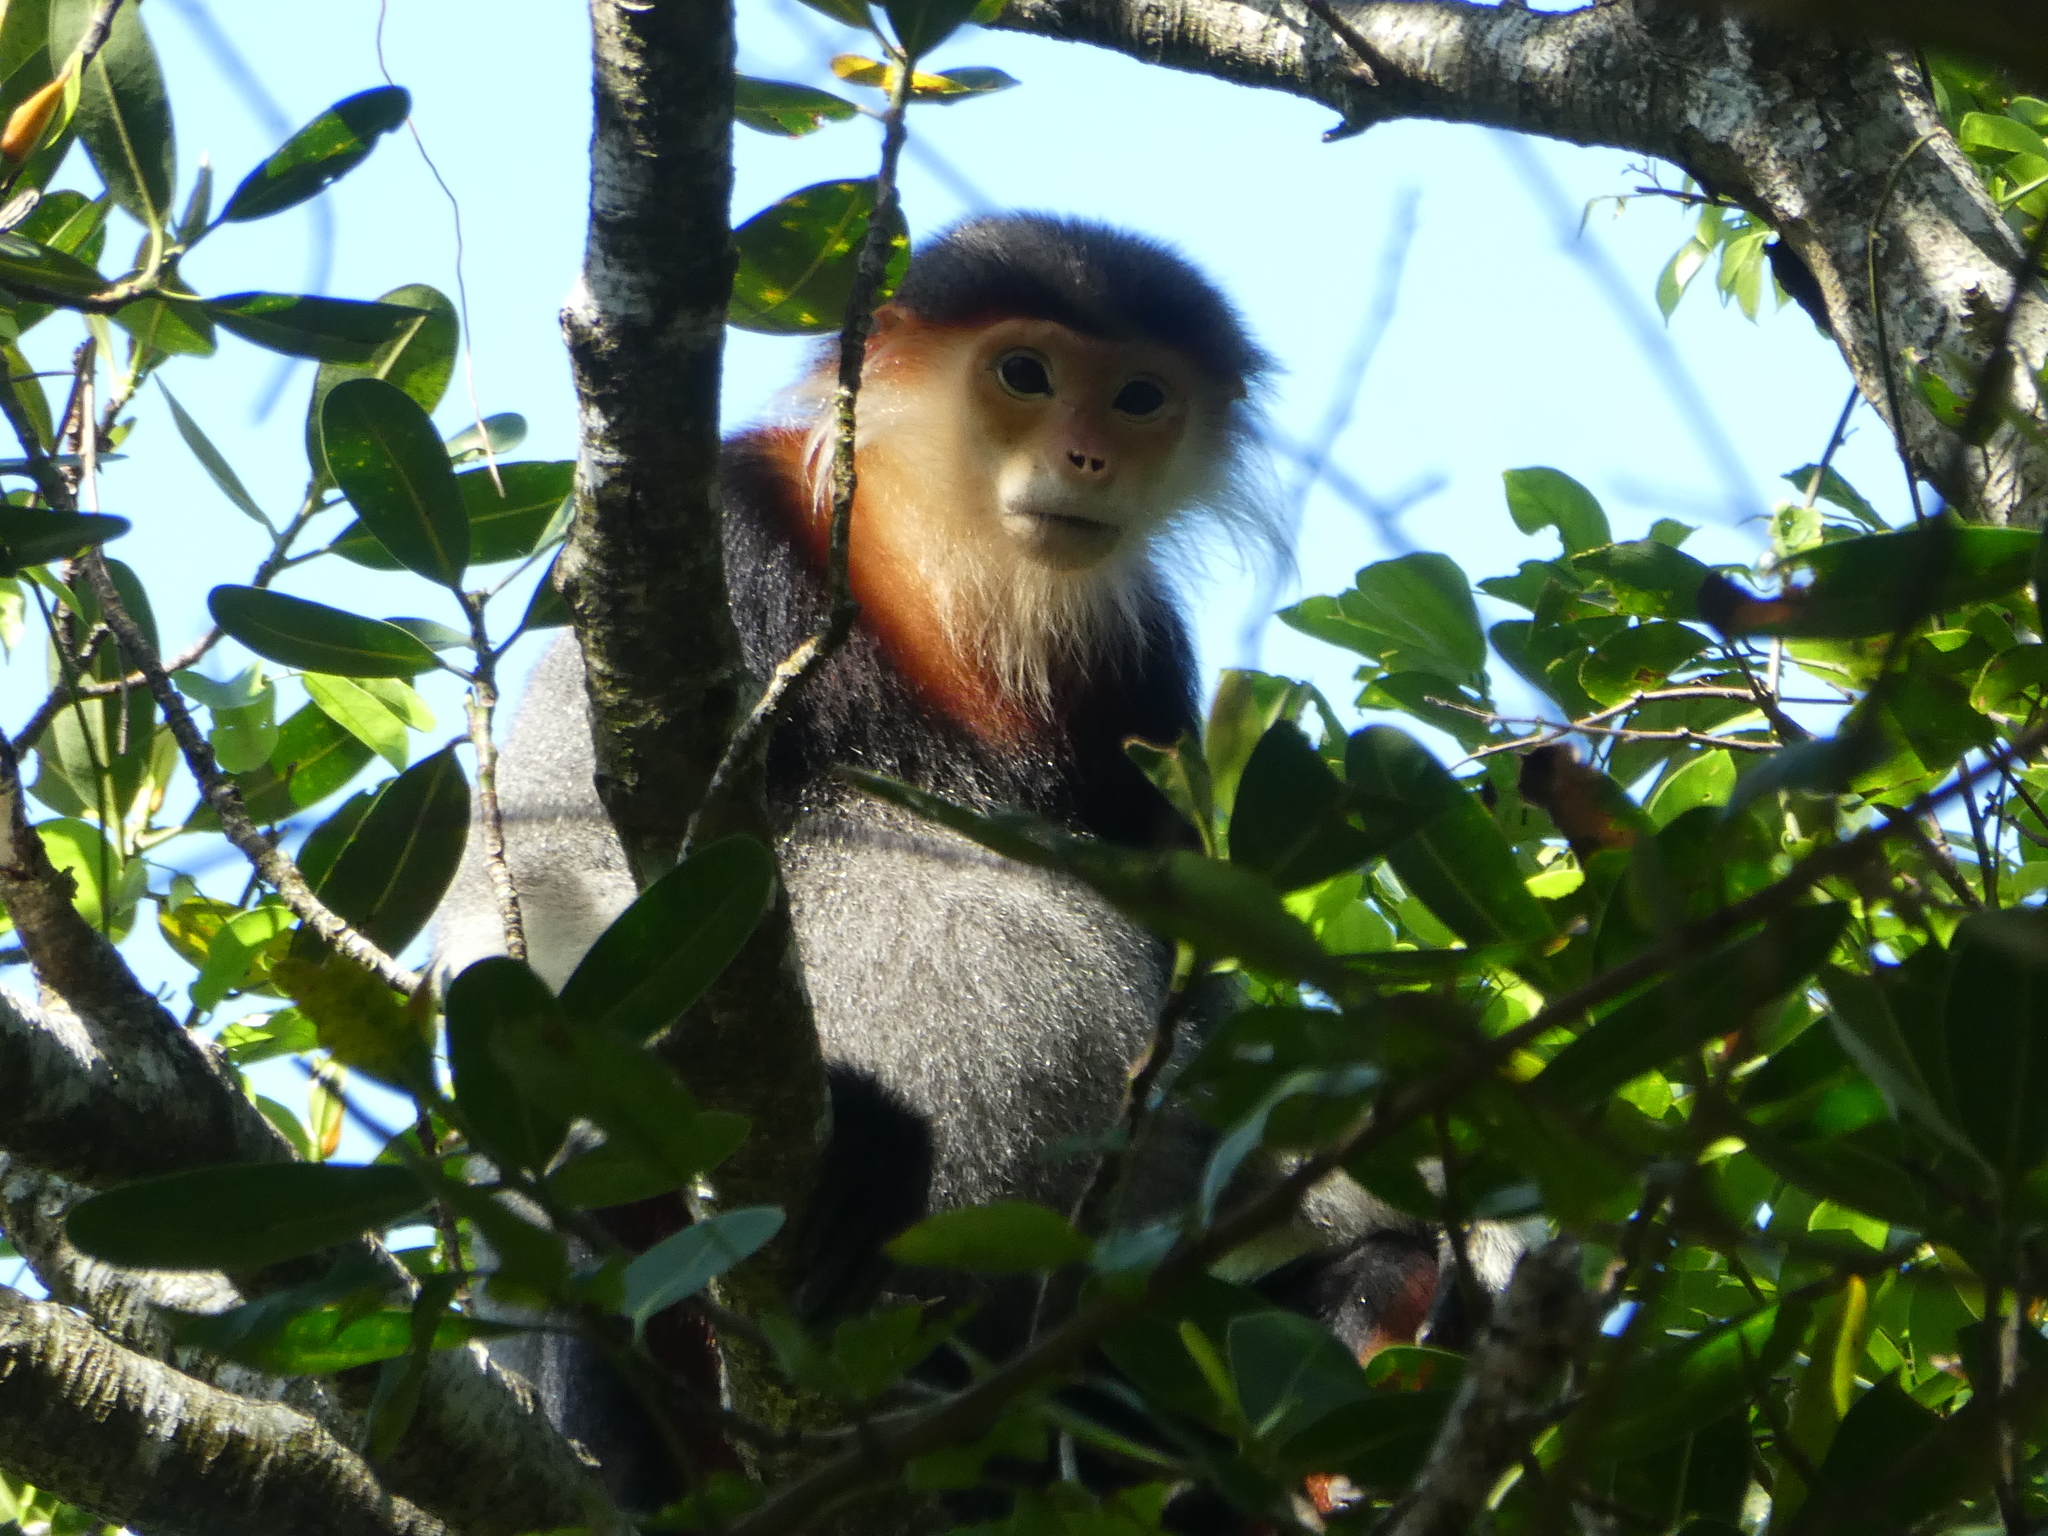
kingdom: Animalia
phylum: Chordata
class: Mammalia
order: Primates
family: Cercopithecidae
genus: Pygathrix
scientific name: Pygathrix nemaeus
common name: Red-shanked douc
